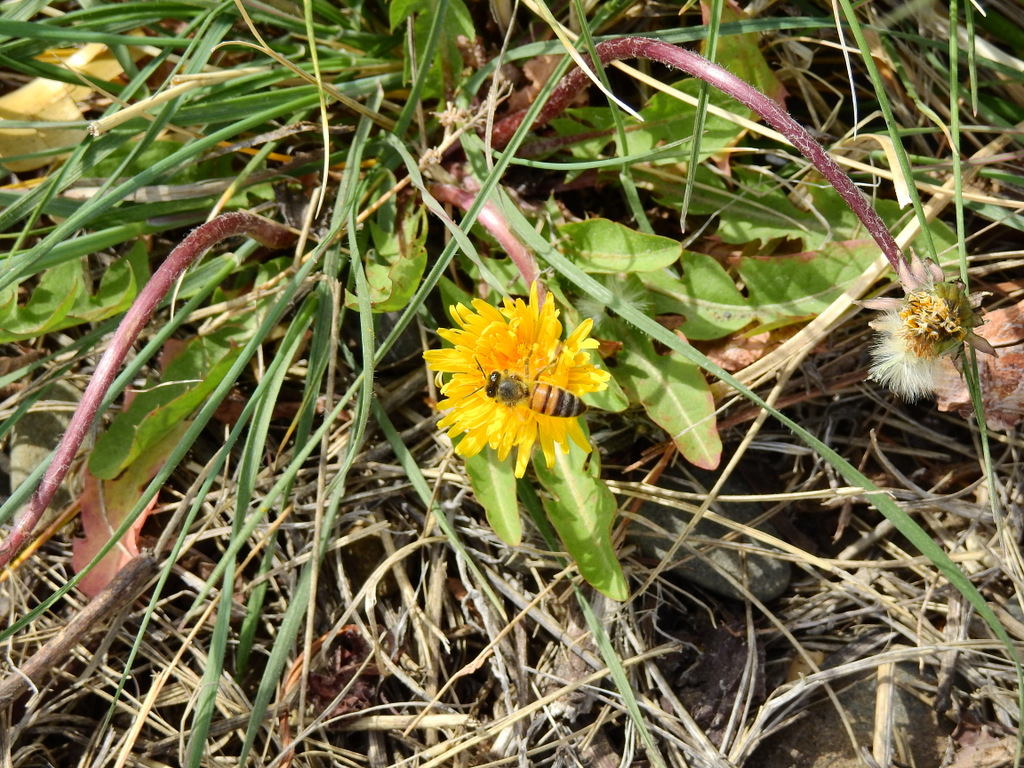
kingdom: Animalia
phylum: Arthropoda
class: Insecta
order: Hymenoptera
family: Apidae
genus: Apis
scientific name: Apis mellifera
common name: Honey bee
